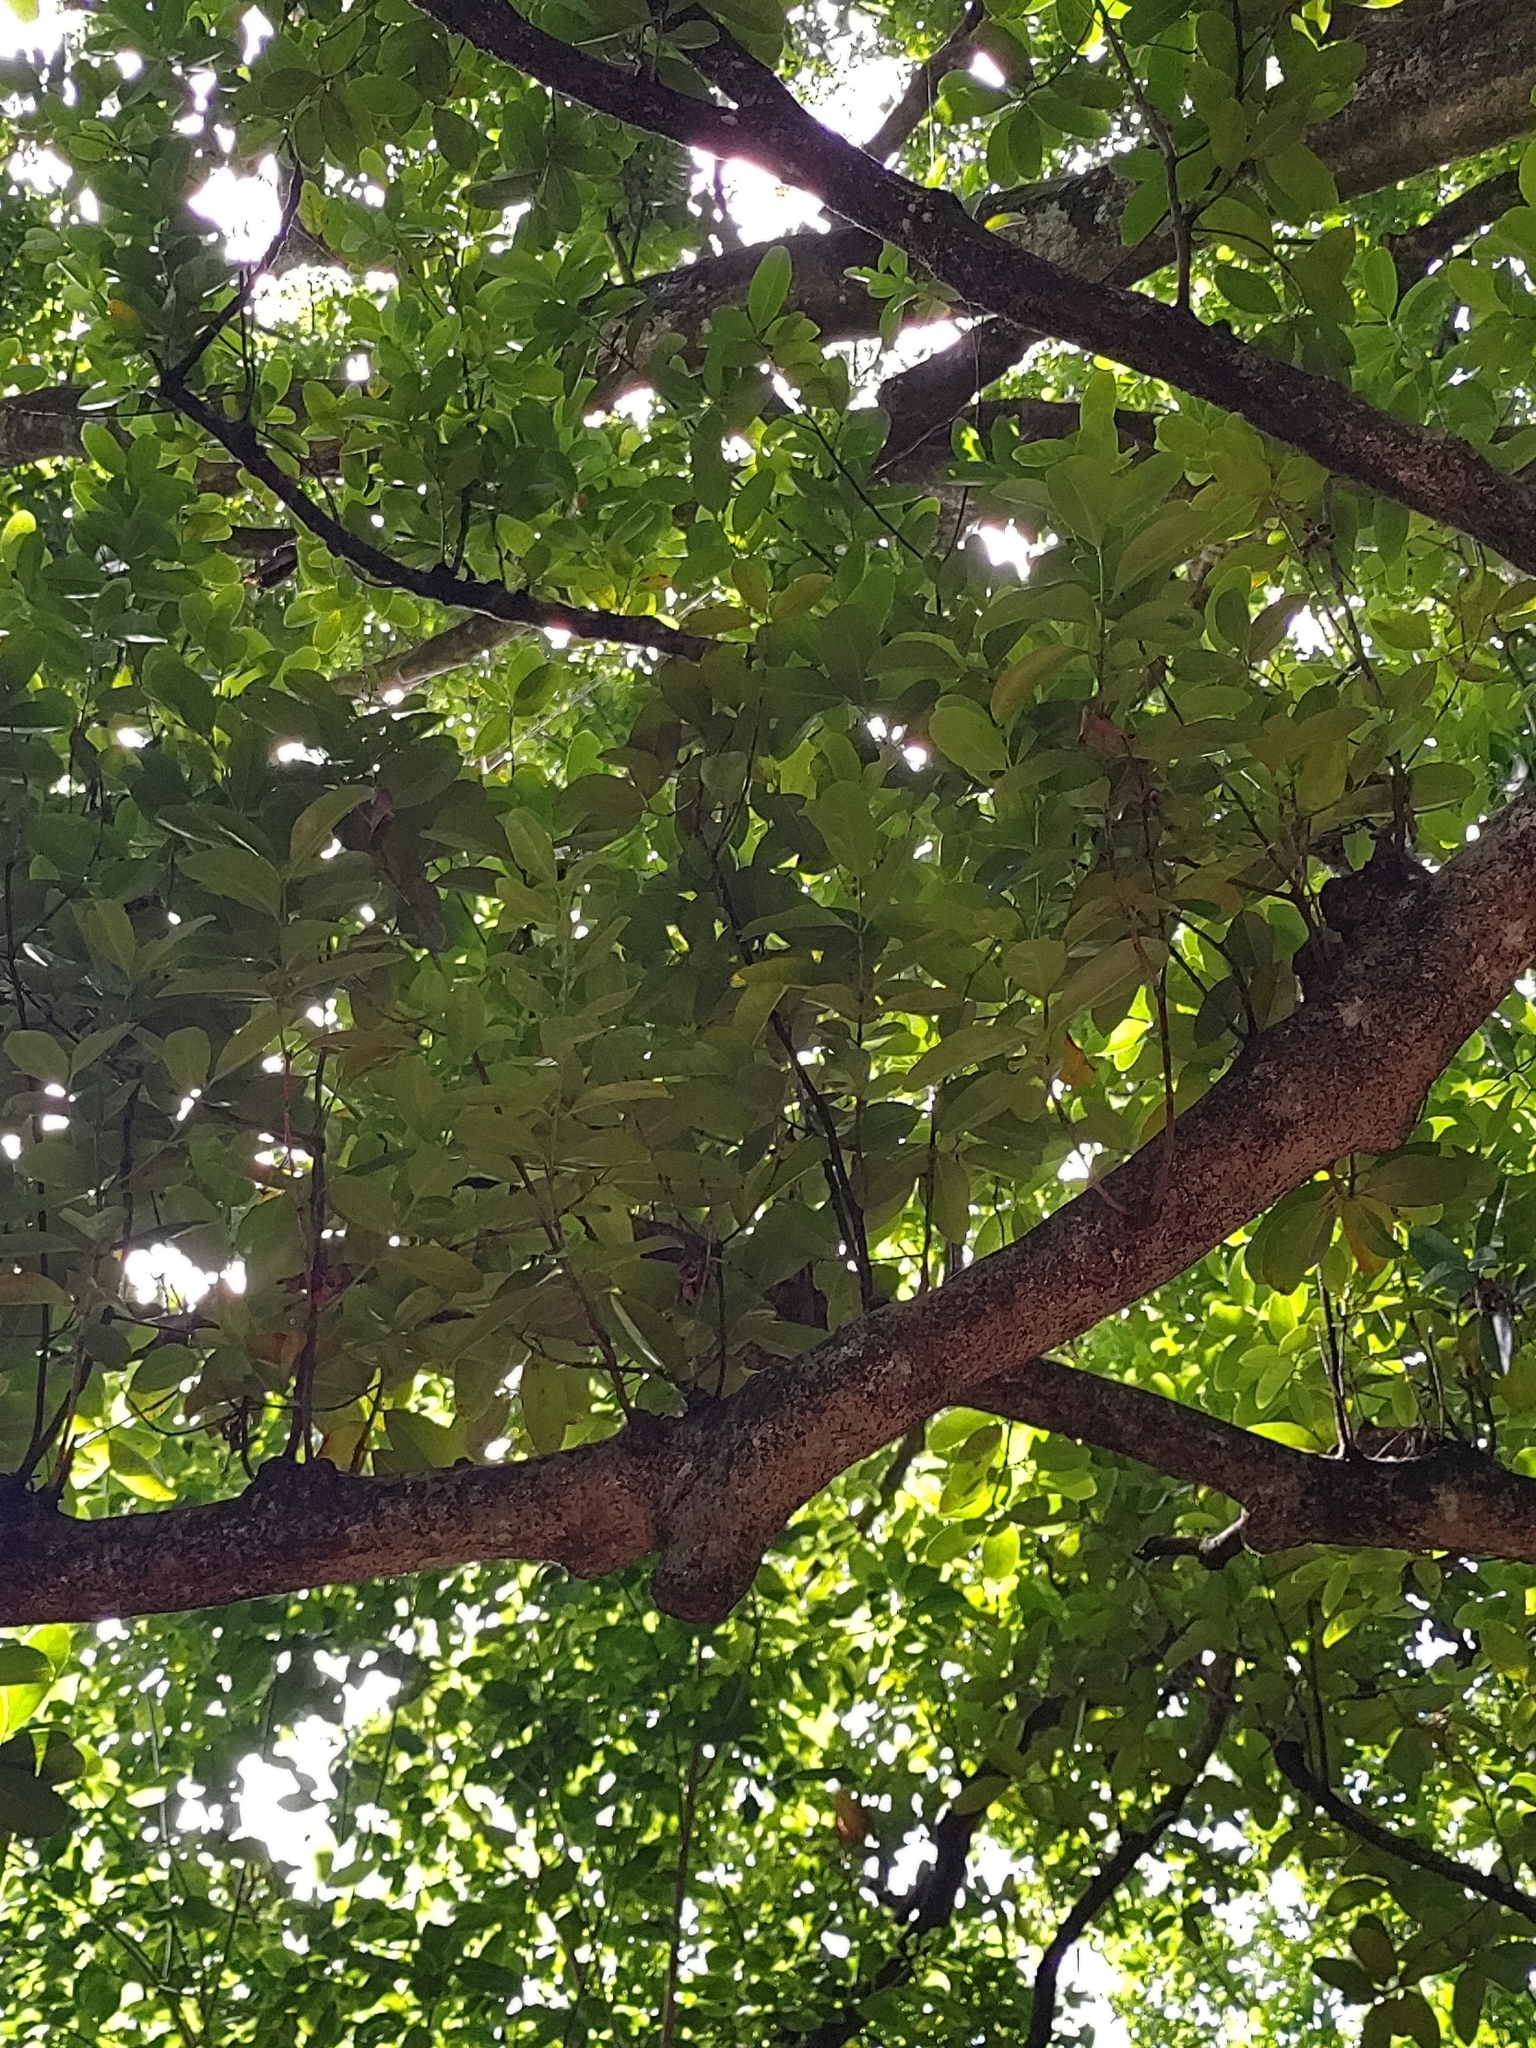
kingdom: Plantae
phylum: Tracheophyta
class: Magnoliopsida
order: Celastrales
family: Celastraceae
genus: Elaeodendron
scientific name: Elaeodendron orientale
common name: False olive
